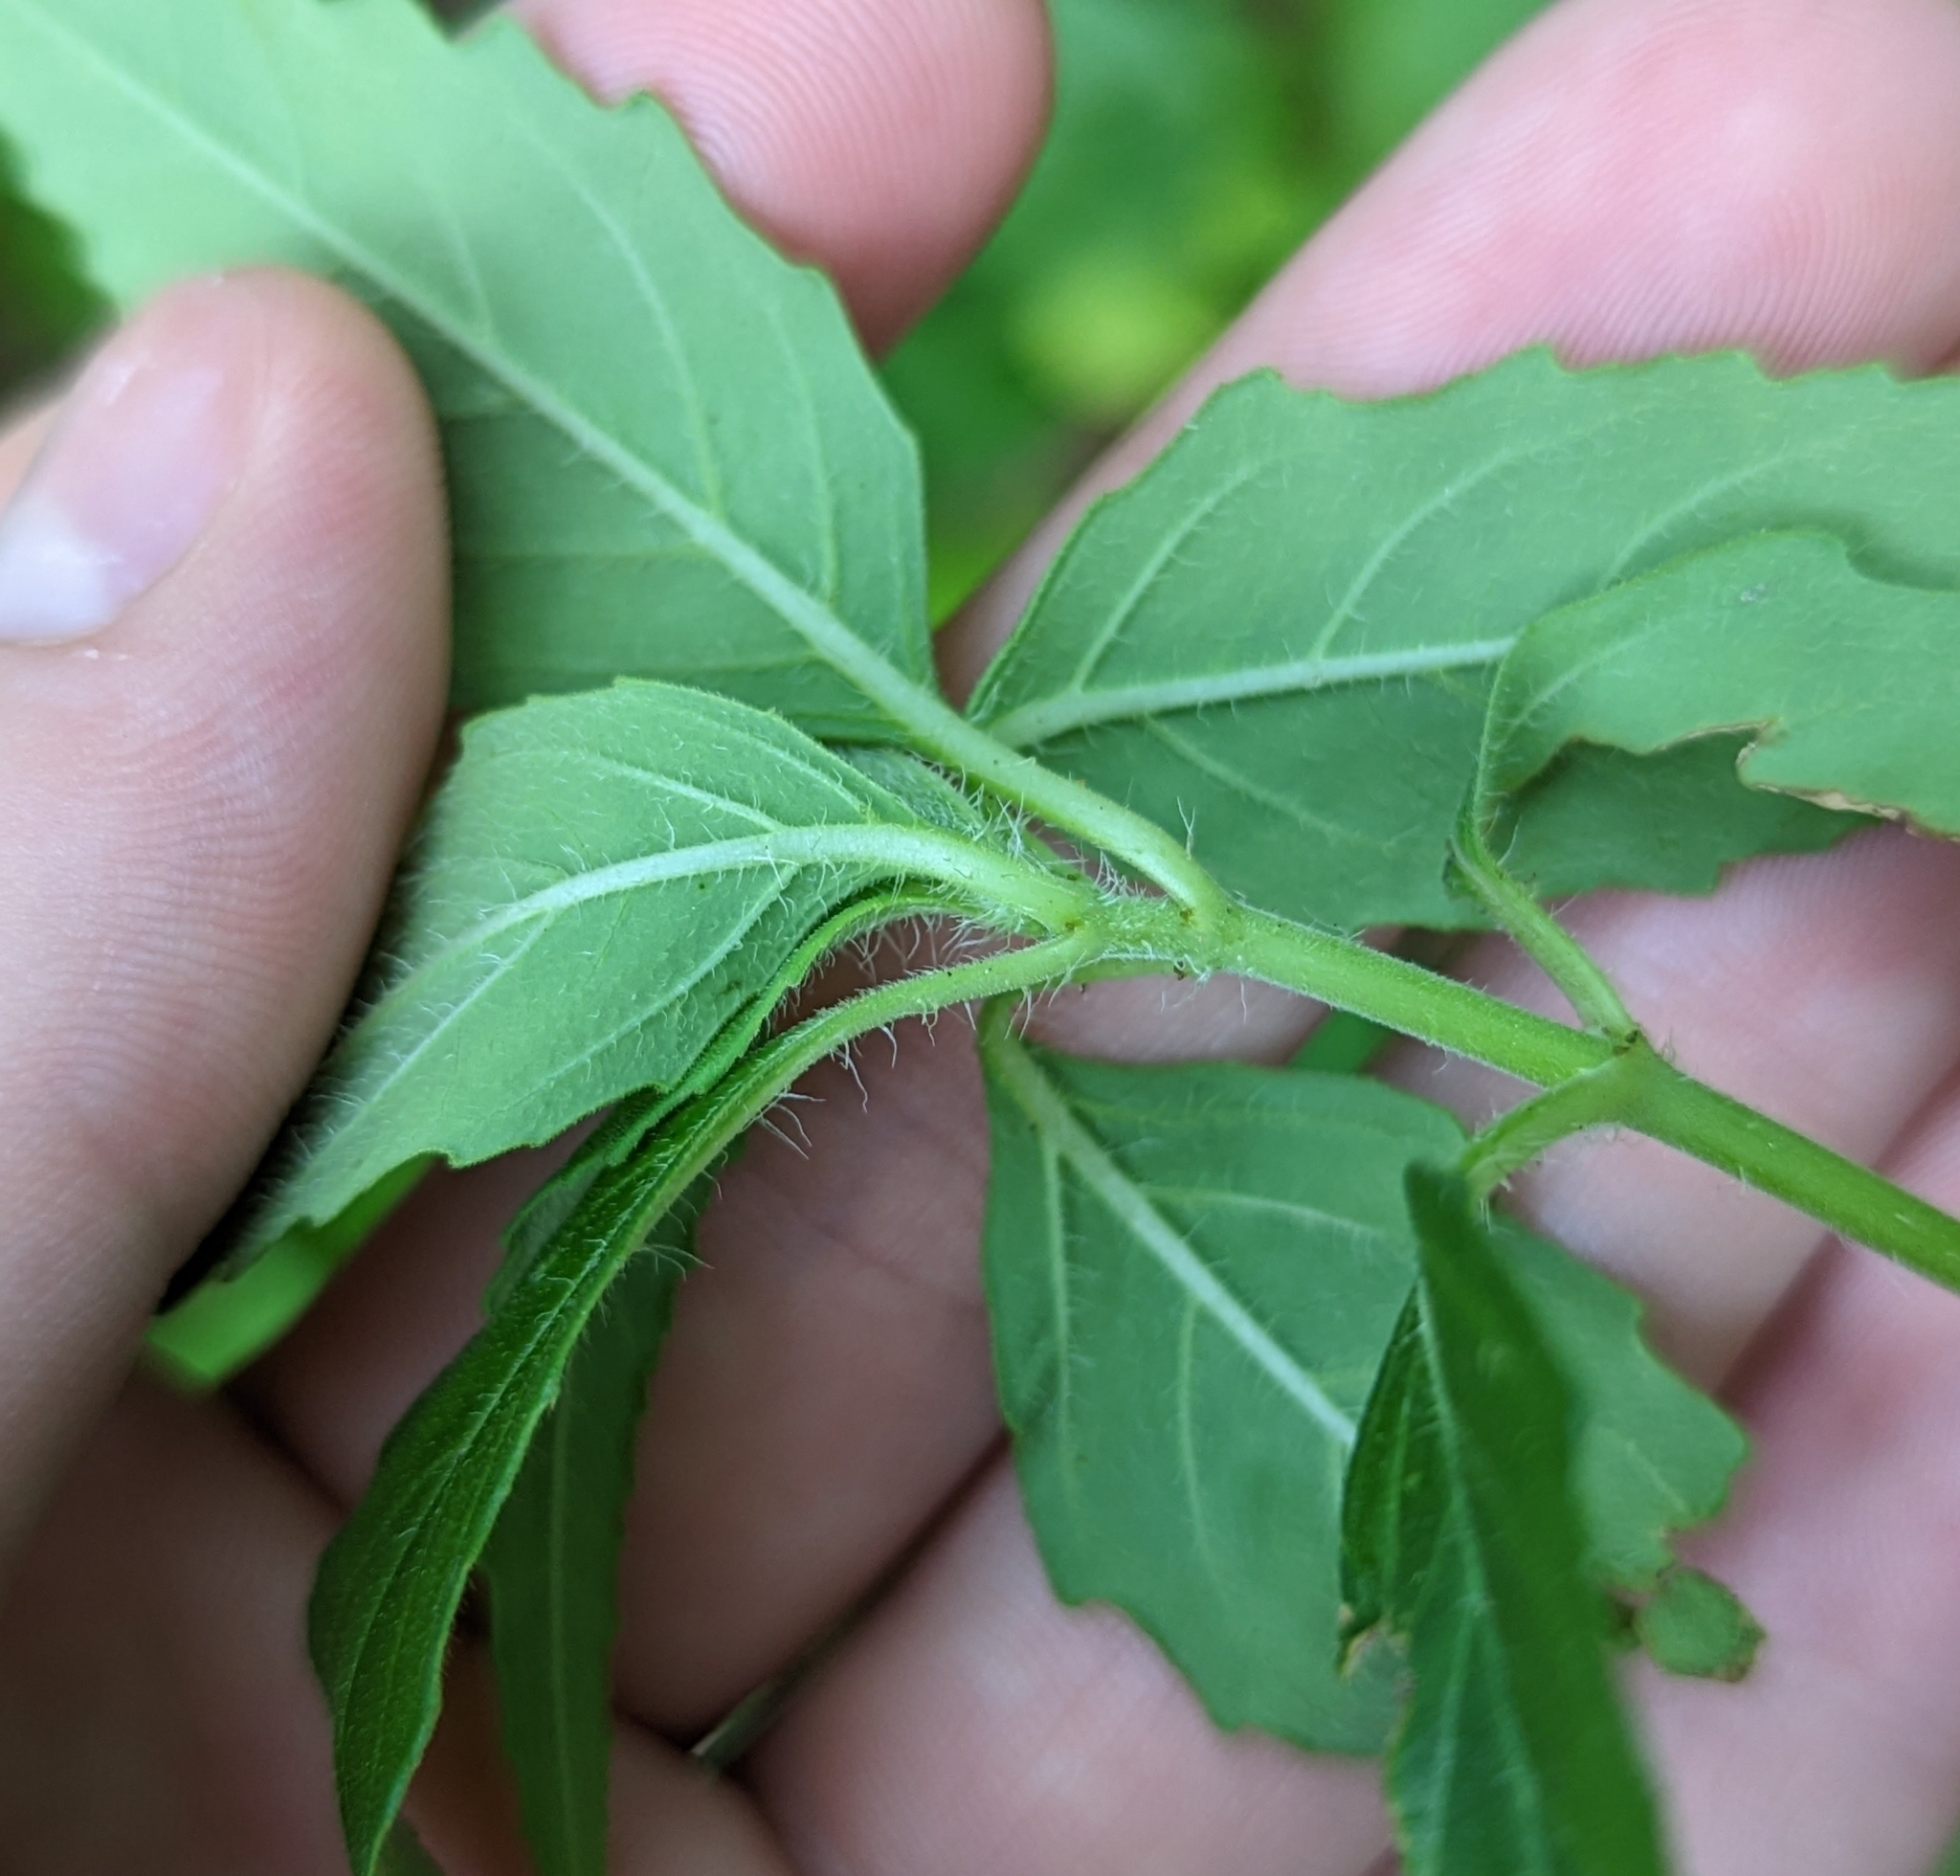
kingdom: Plantae
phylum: Tracheophyta
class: Magnoliopsida
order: Malpighiales
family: Euphorbiaceae
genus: Euphorbia
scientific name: Euphorbia dentata
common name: Dentate spurge
